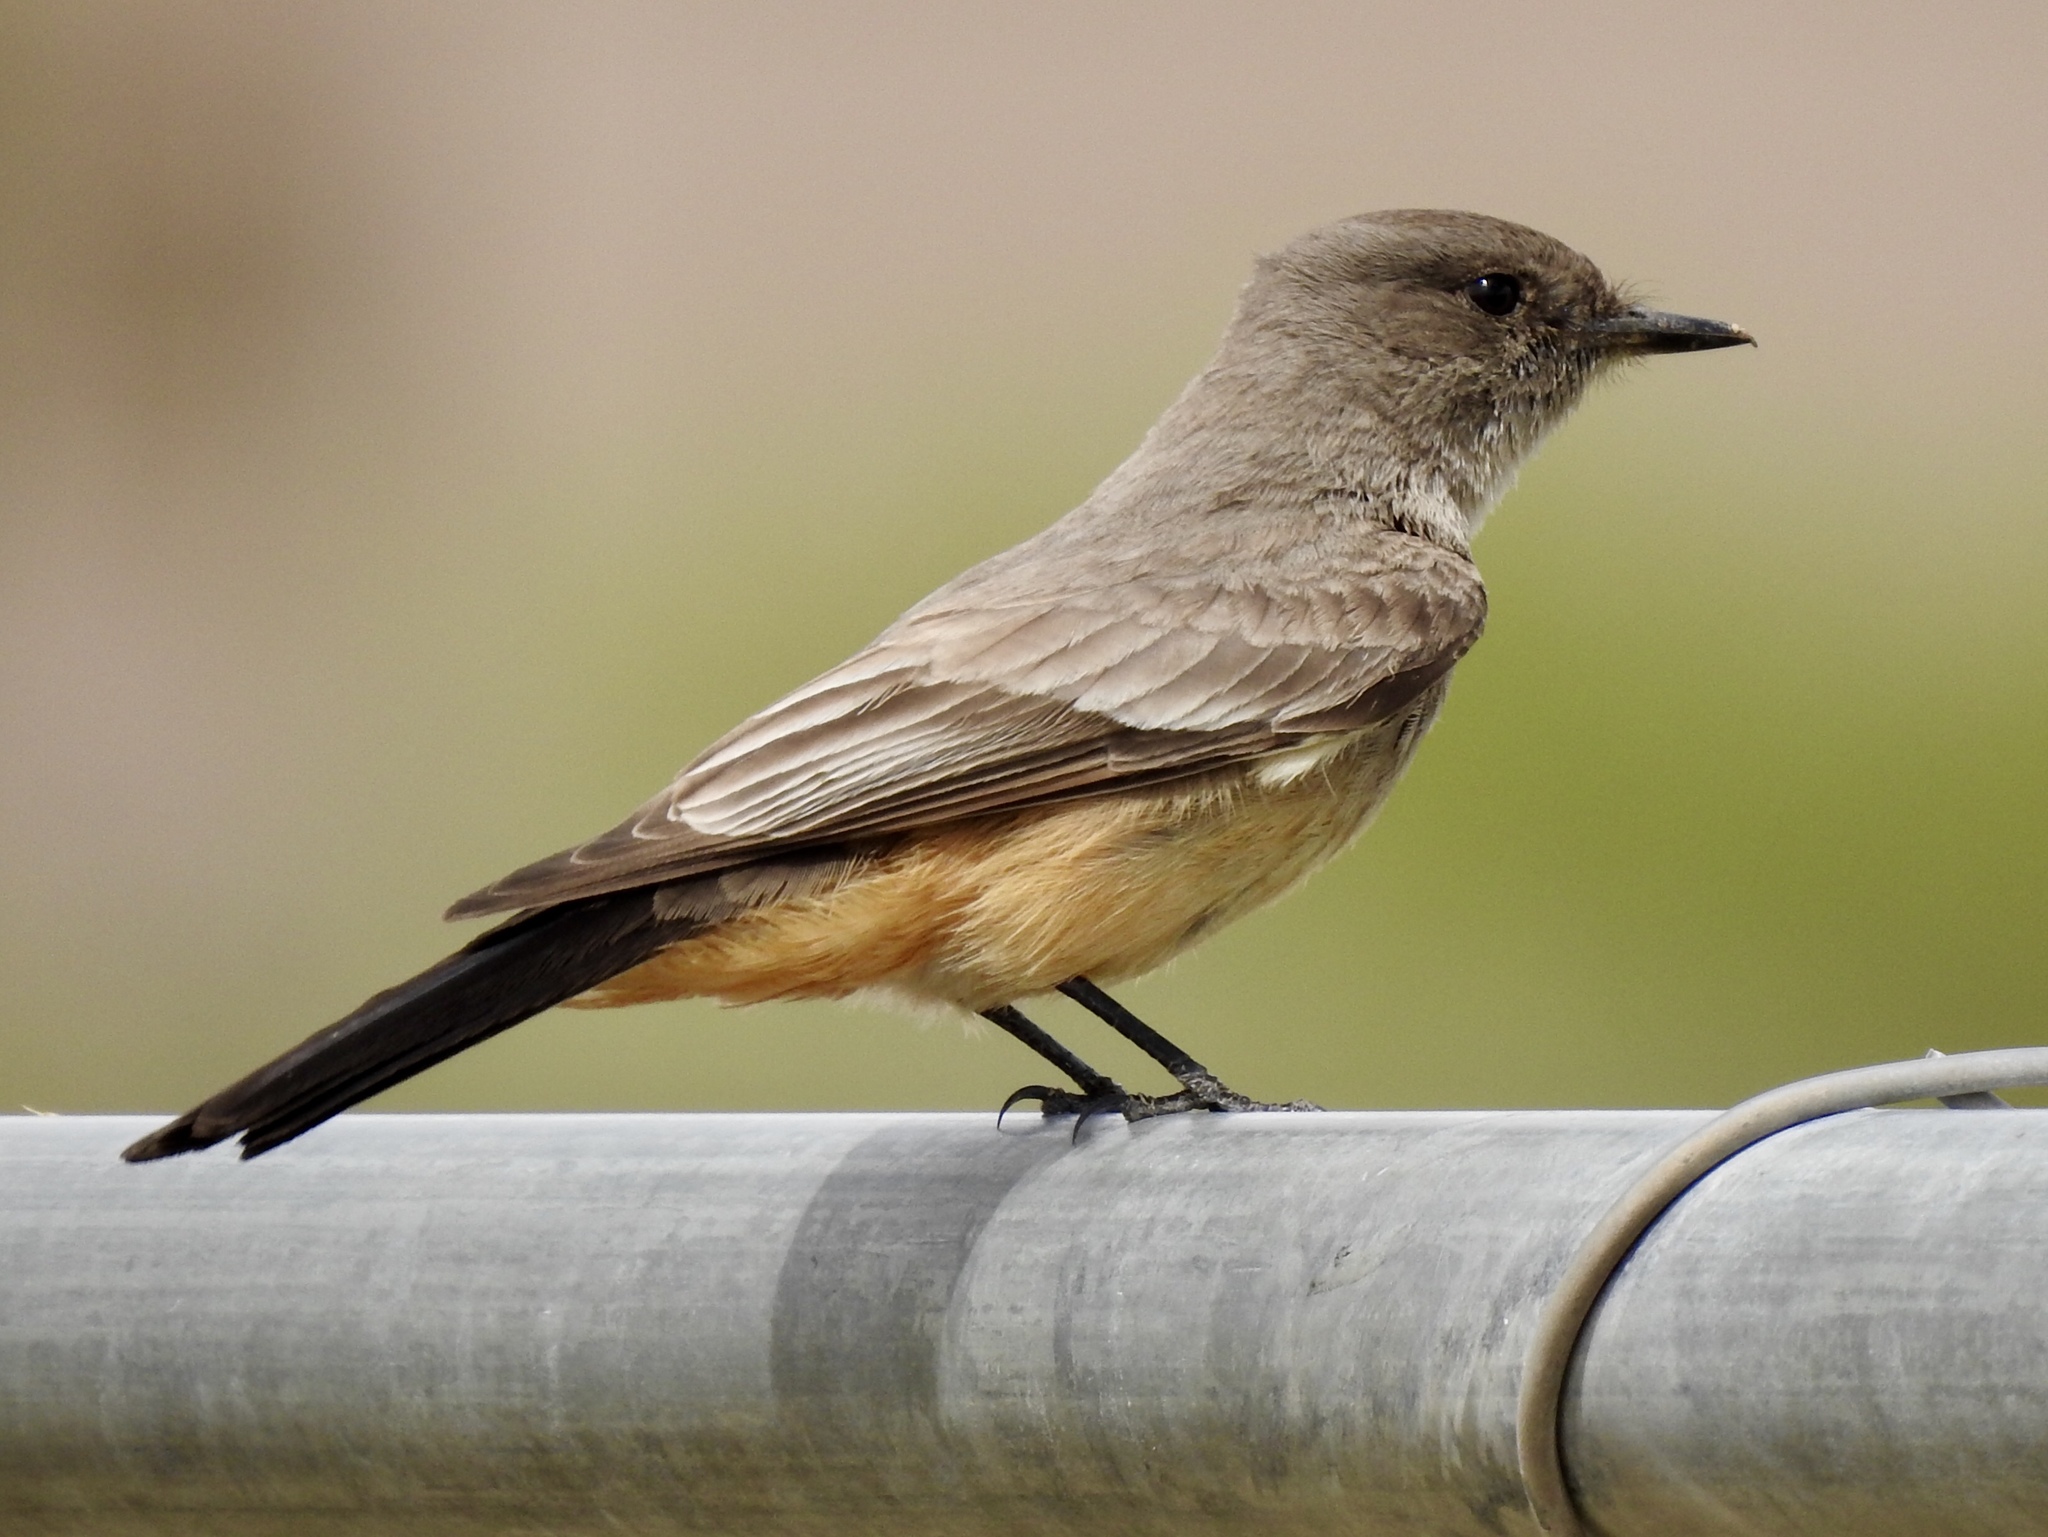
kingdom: Animalia
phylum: Chordata
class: Aves
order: Passeriformes
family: Tyrannidae
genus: Sayornis
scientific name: Sayornis saya
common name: Say's phoebe
